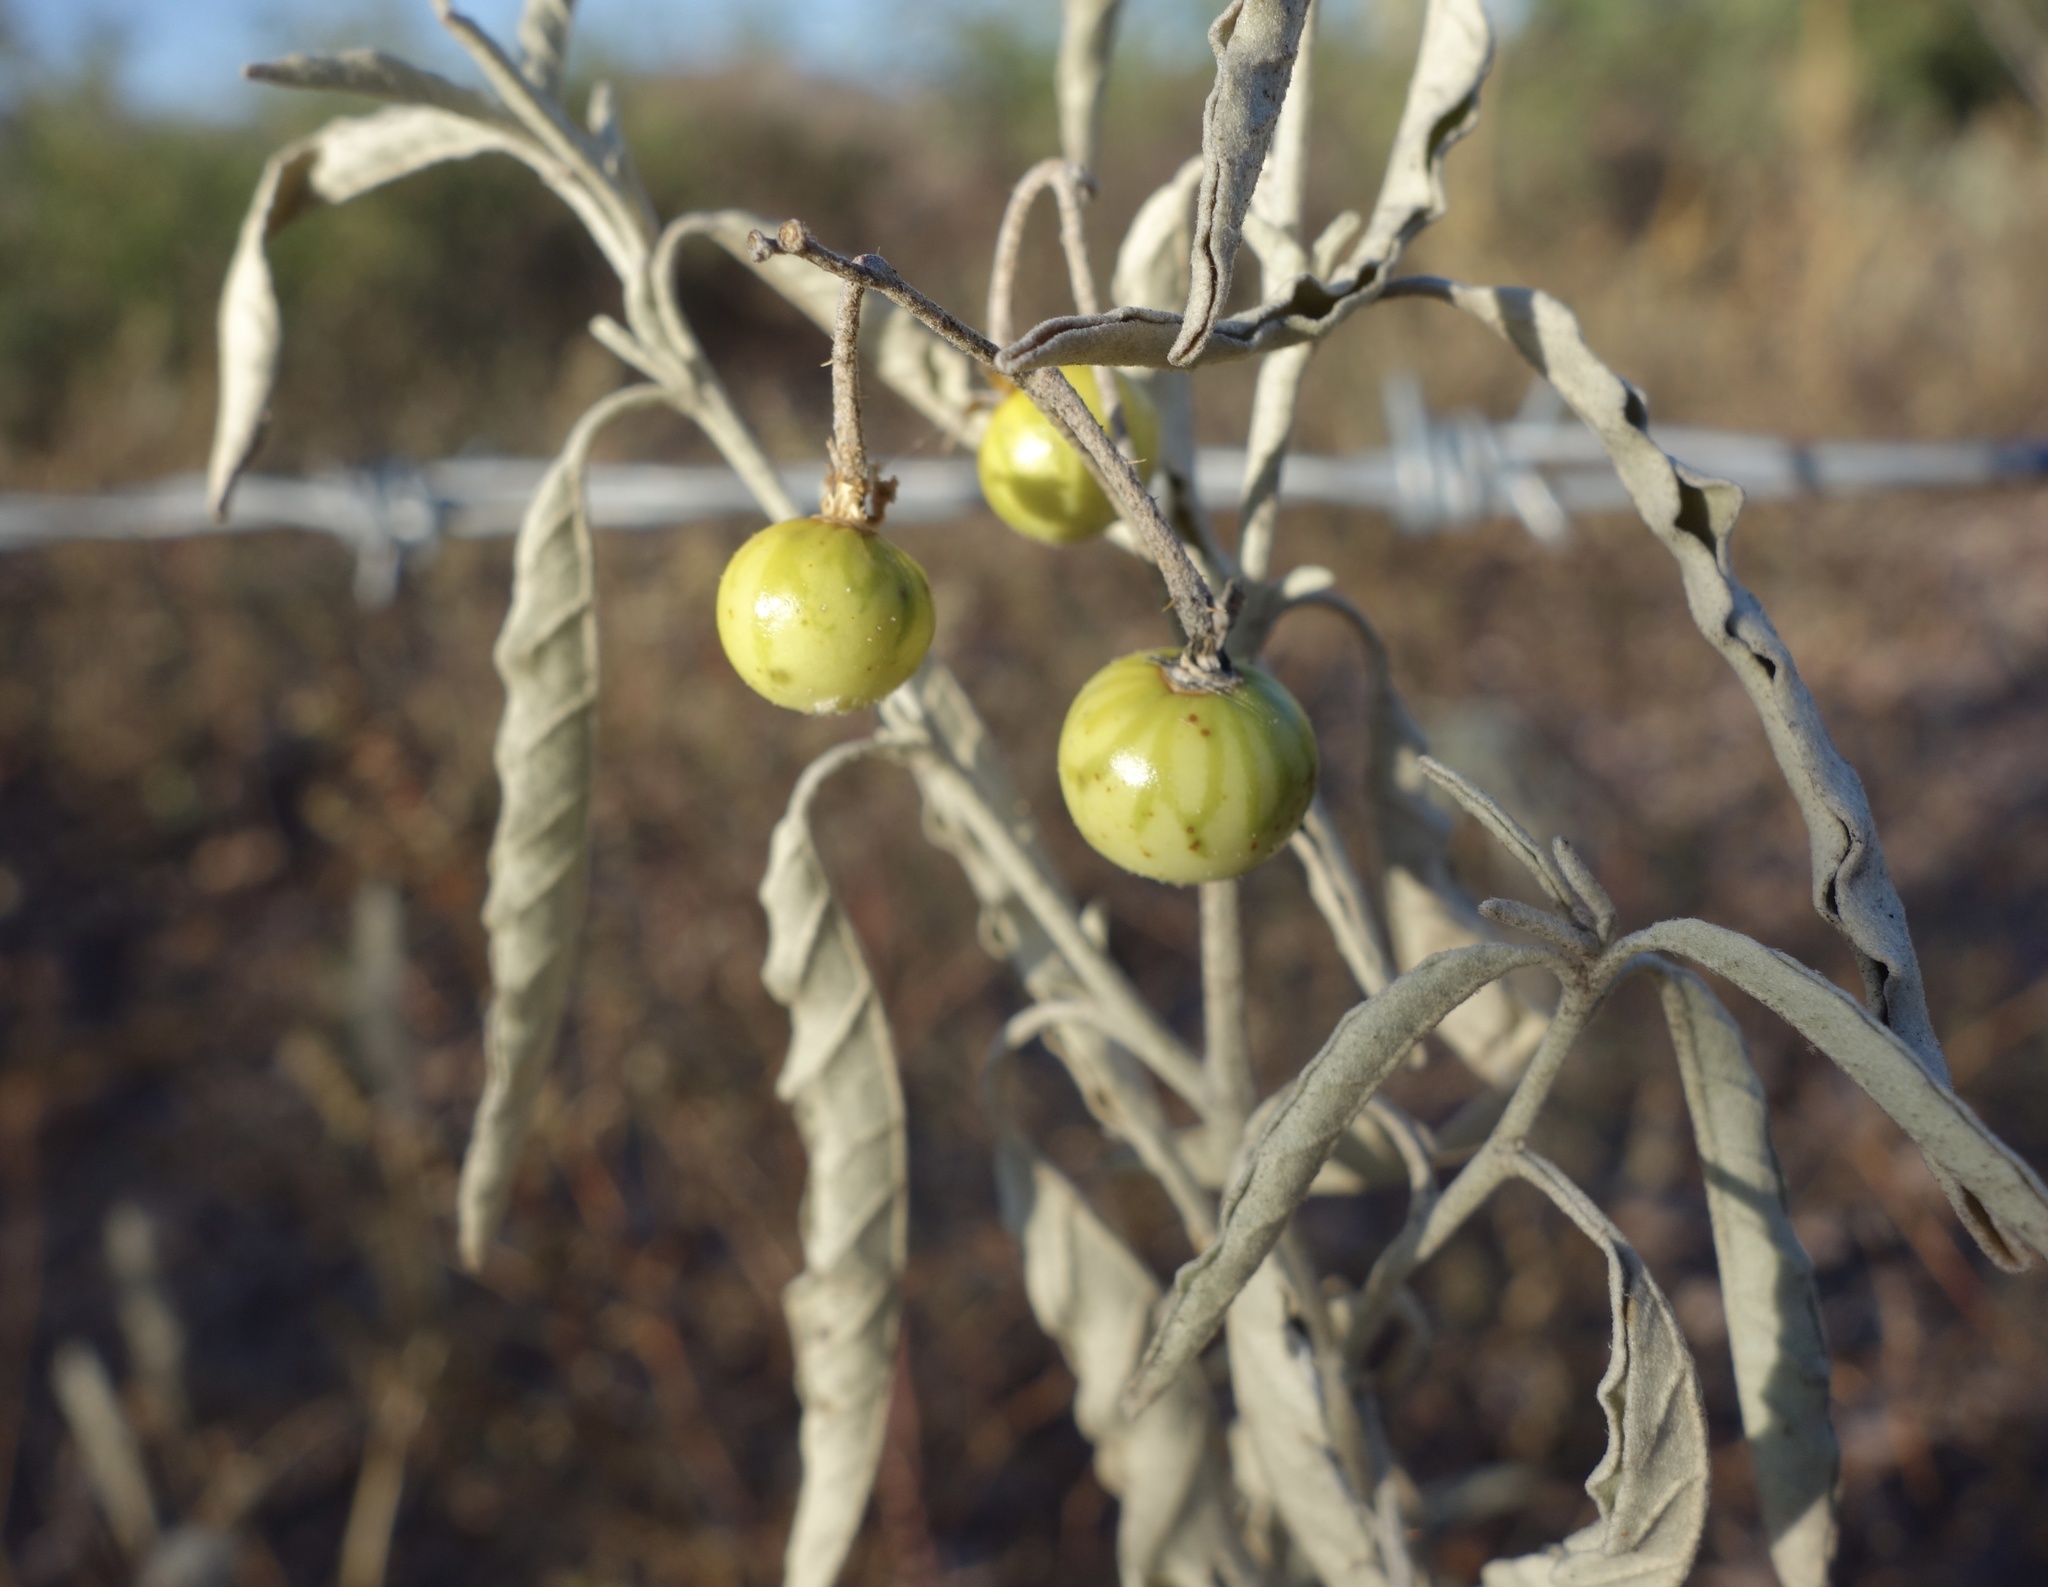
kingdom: Plantae
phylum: Tracheophyta
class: Magnoliopsida
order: Solanales
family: Solanaceae
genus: Solanum
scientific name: Solanum elaeagnifolium
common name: Silverleaf nightshade
